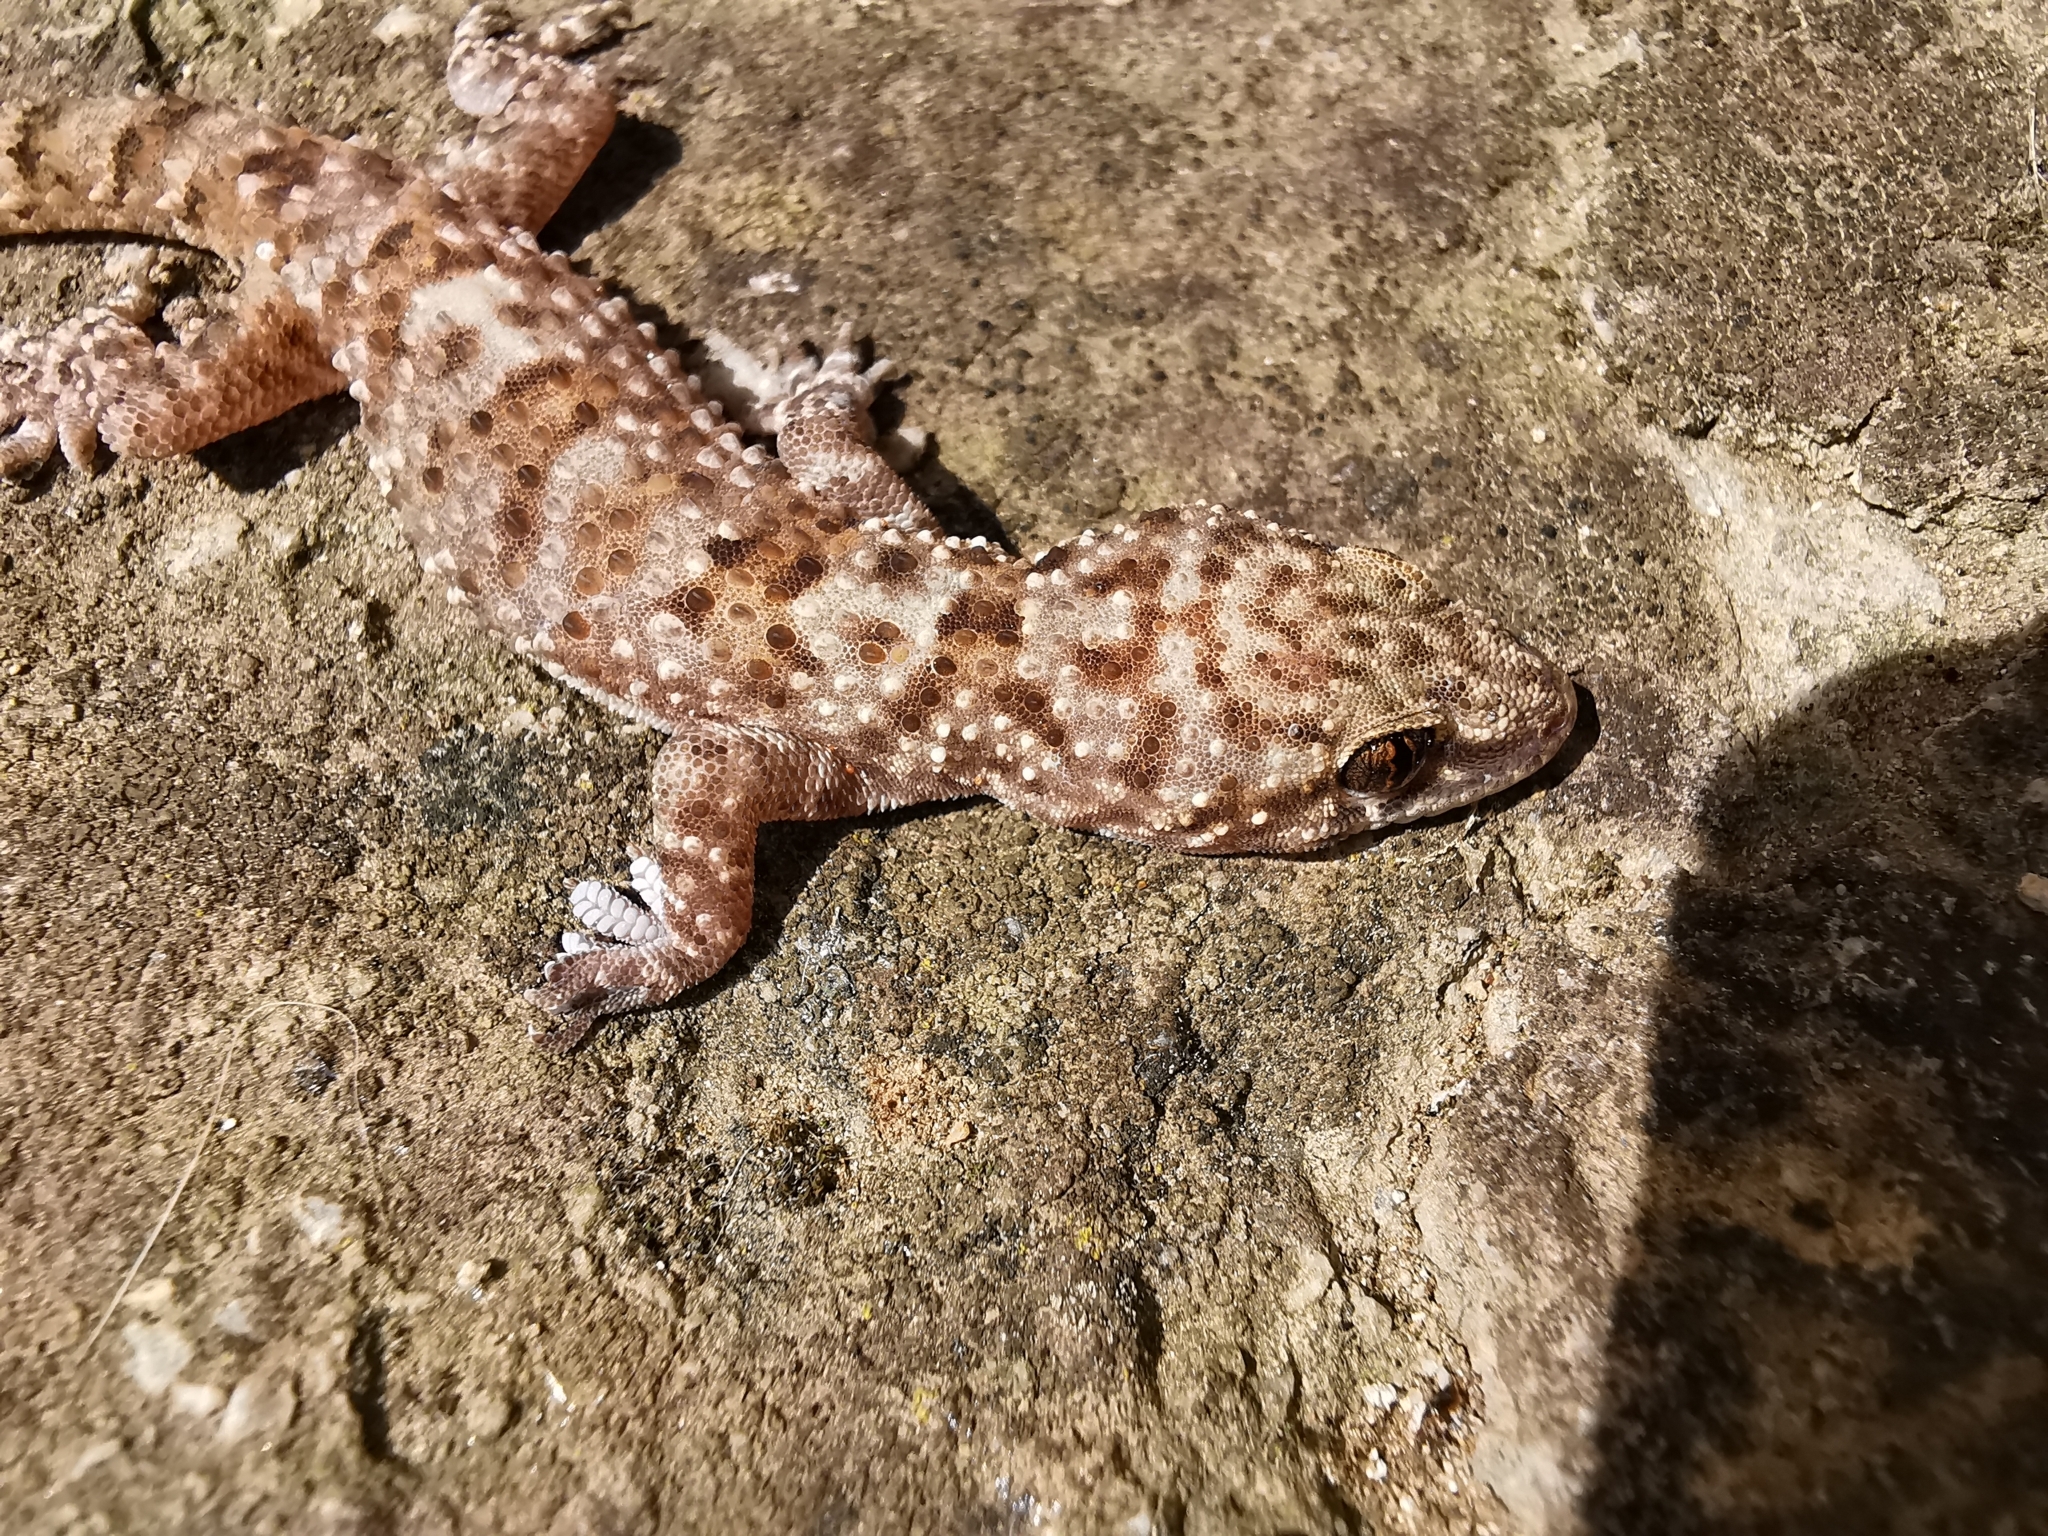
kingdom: Animalia
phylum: Chordata
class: Squamata
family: Gekkonidae
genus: Hemidactylus
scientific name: Hemidactylus turcicus
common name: Turkish gecko
